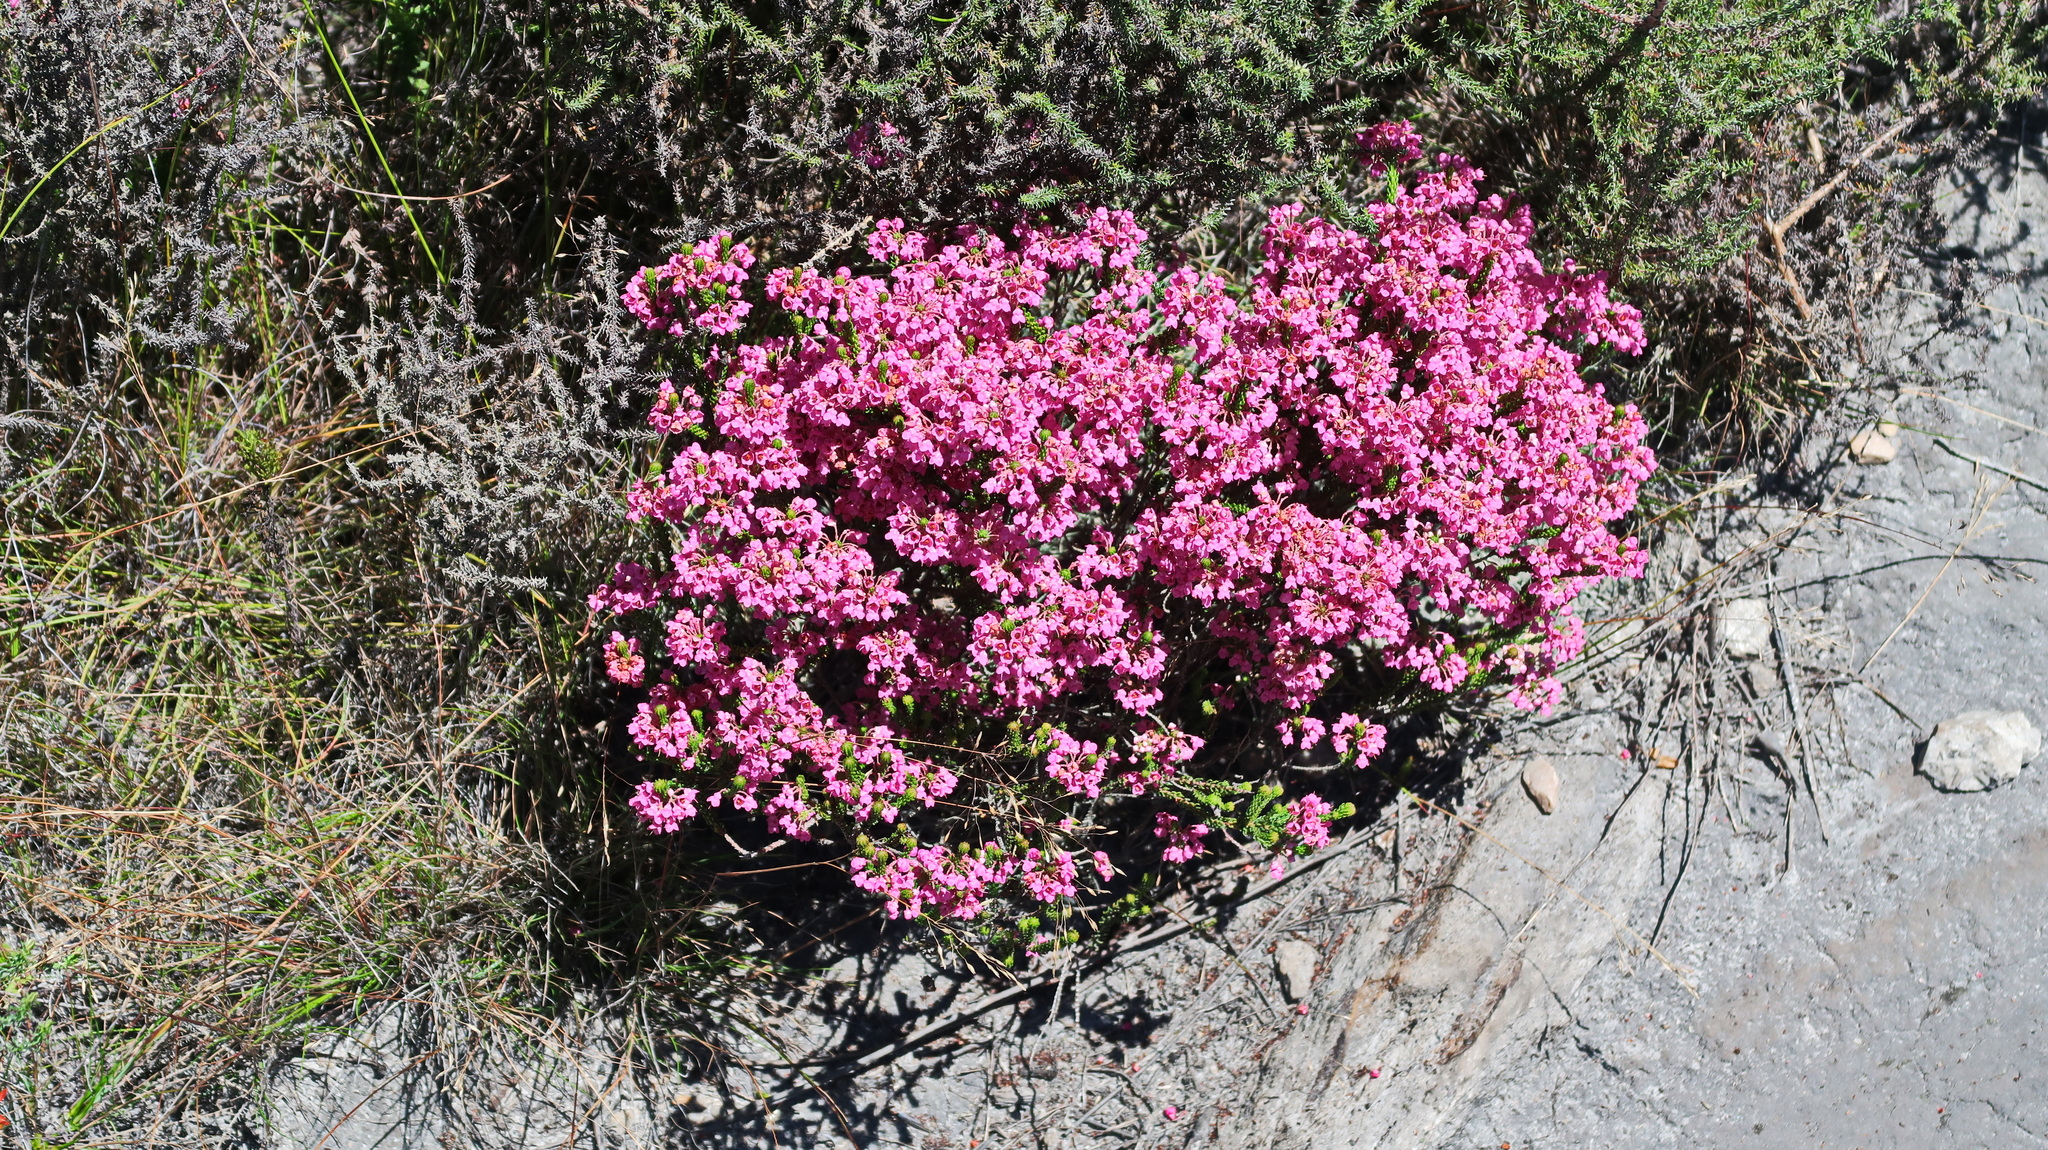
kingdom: Plantae
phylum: Tracheophyta
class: Magnoliopsida
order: Ericales
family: Ericaceae
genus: Erica
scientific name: Erica seriphiifolia
